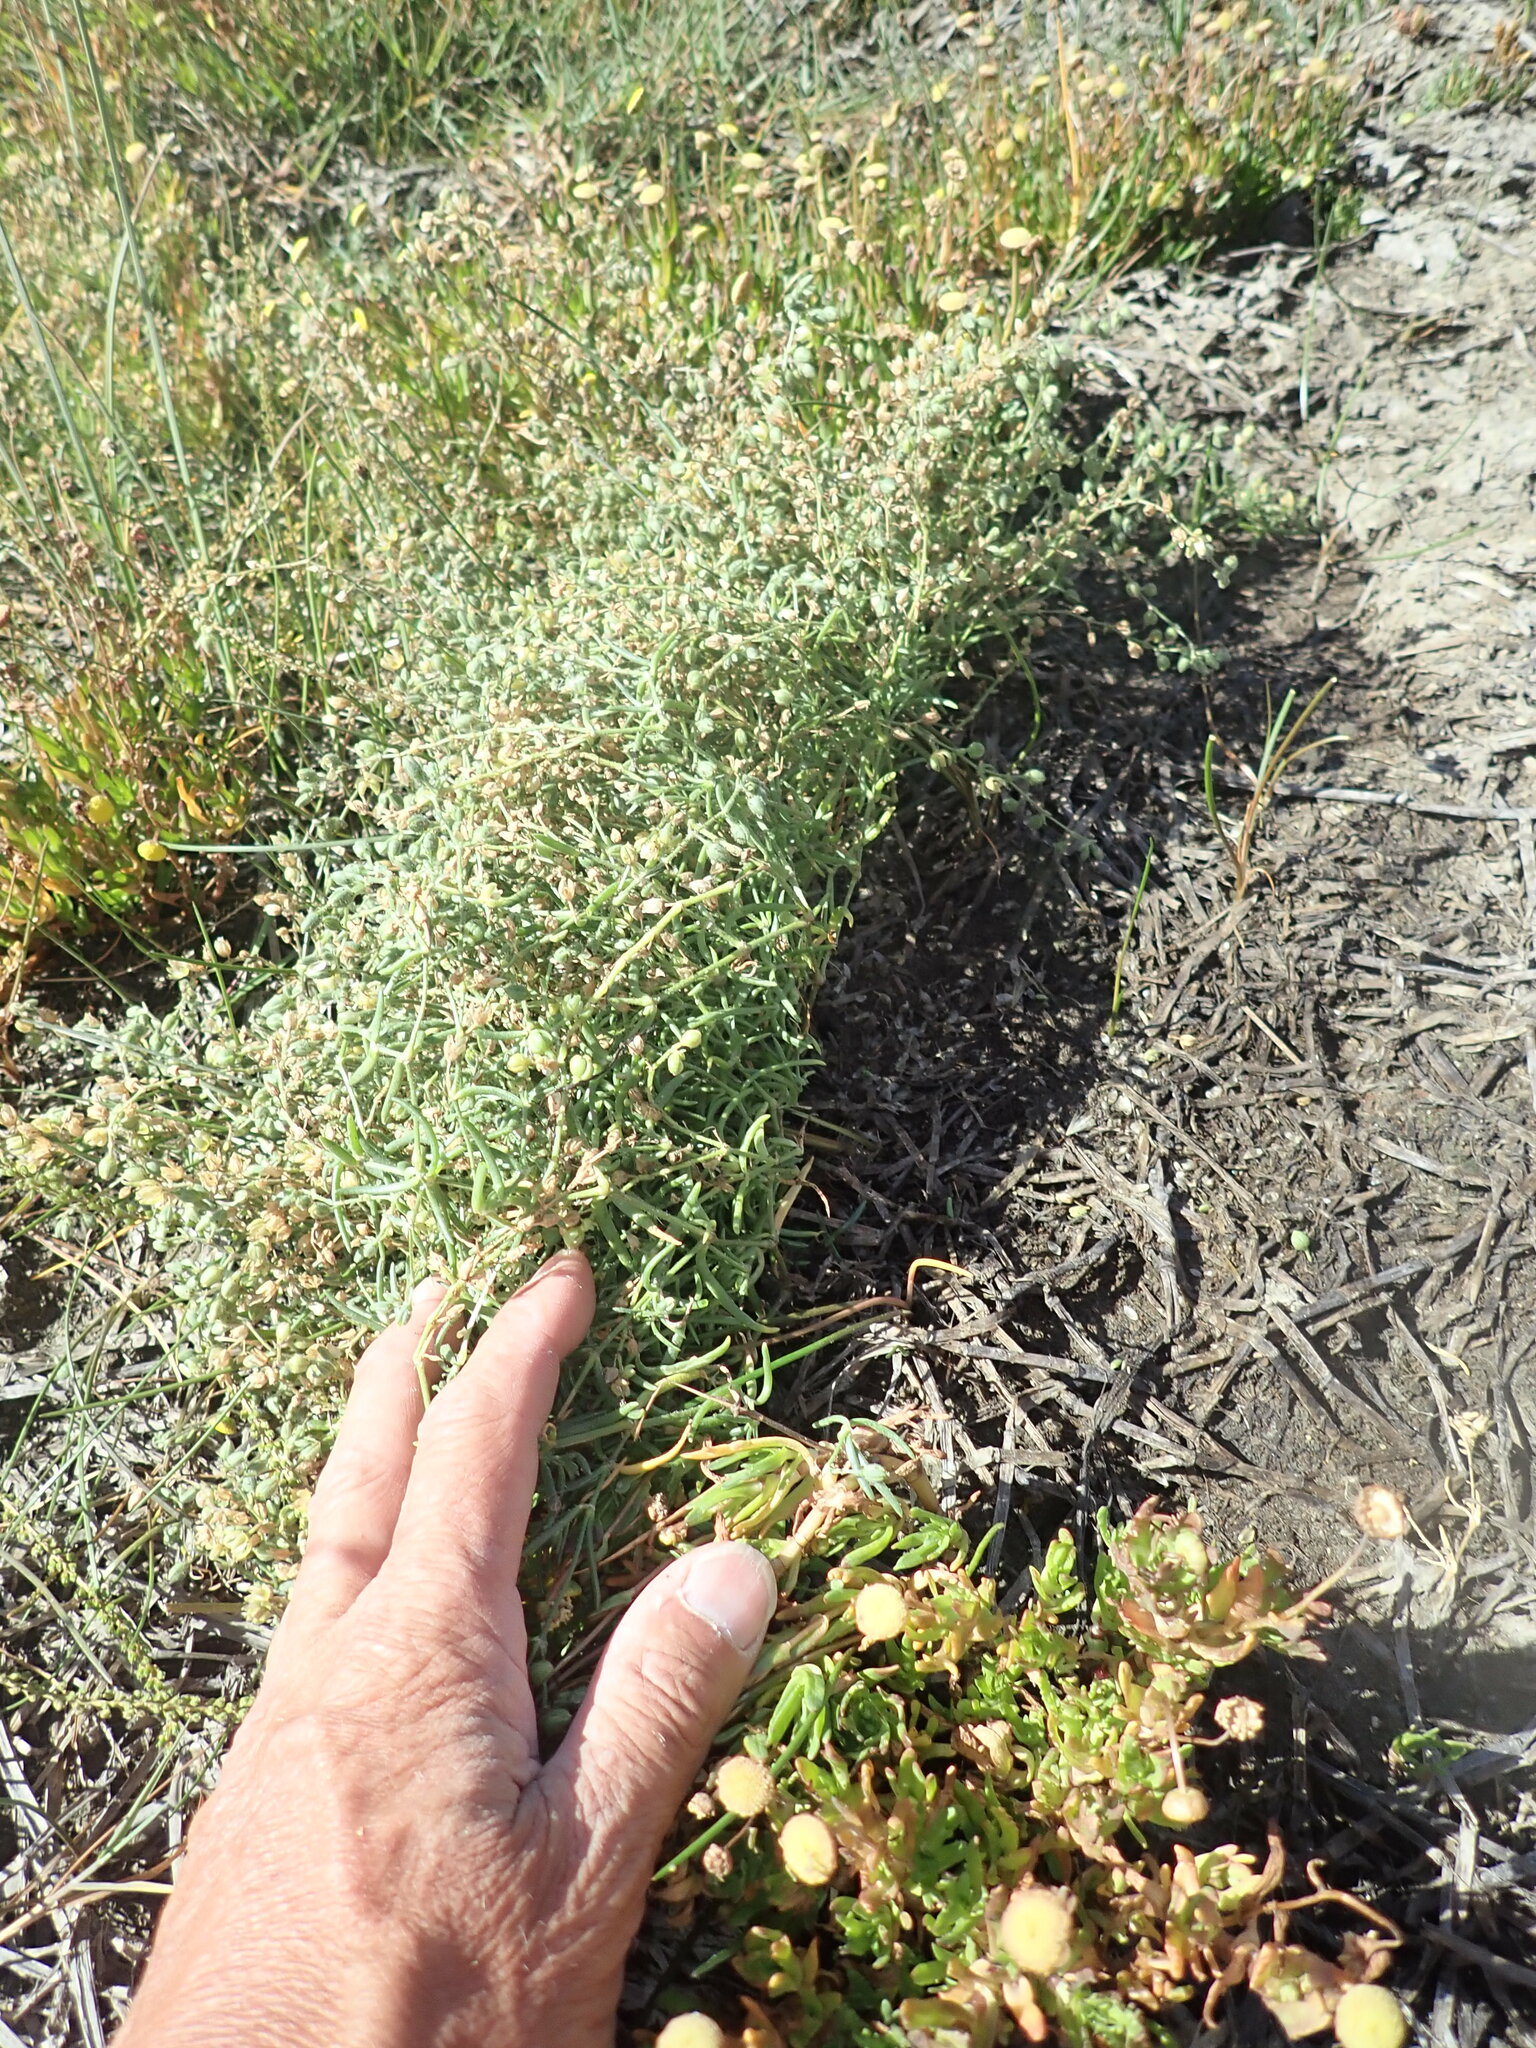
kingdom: Plantae
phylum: Tracheophyta
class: Magnoliopsida
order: Caryophyllales
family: Caryophyllaceae
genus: Spergula
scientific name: Spergula arvensis
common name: Corn spurrey
